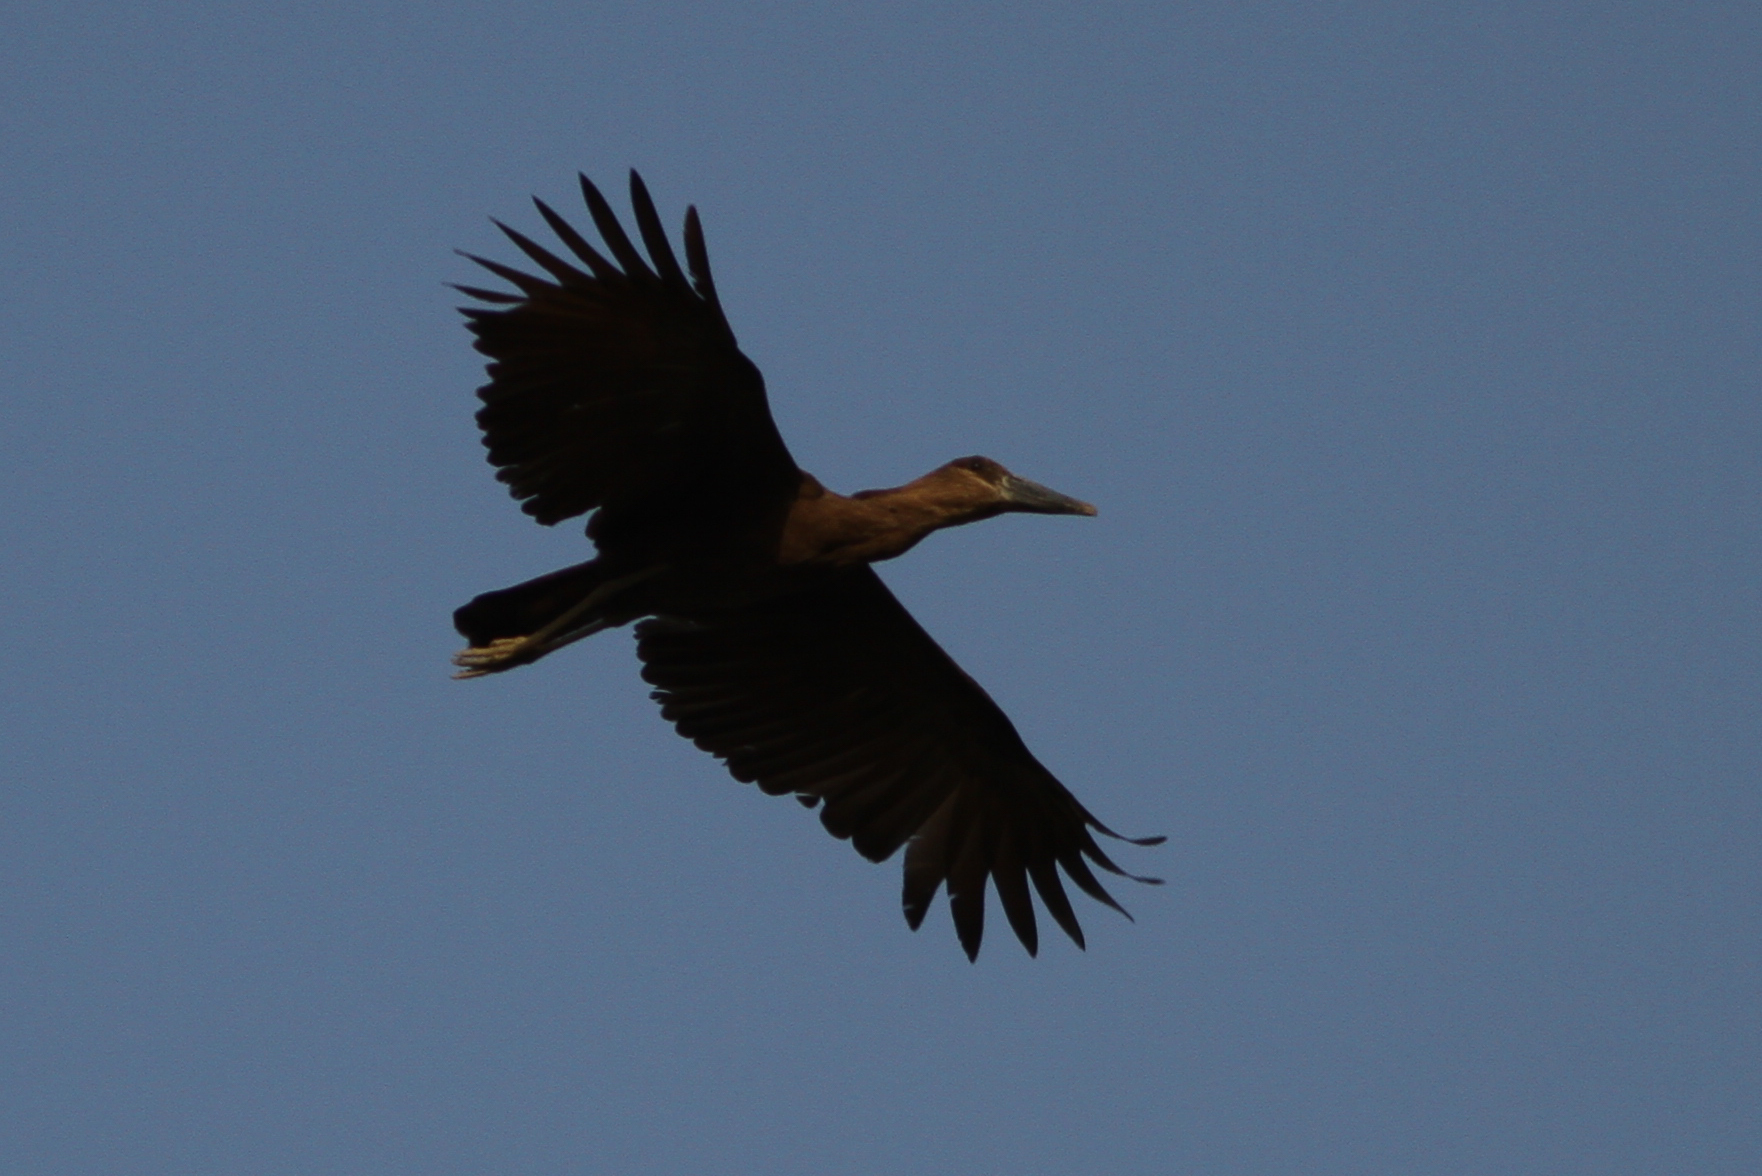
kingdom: Animalia
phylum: Chordata
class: Aves
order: Pelecaniformes
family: Scopidae
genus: Scopus
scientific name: Scopus umbretta
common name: Hamerkop
